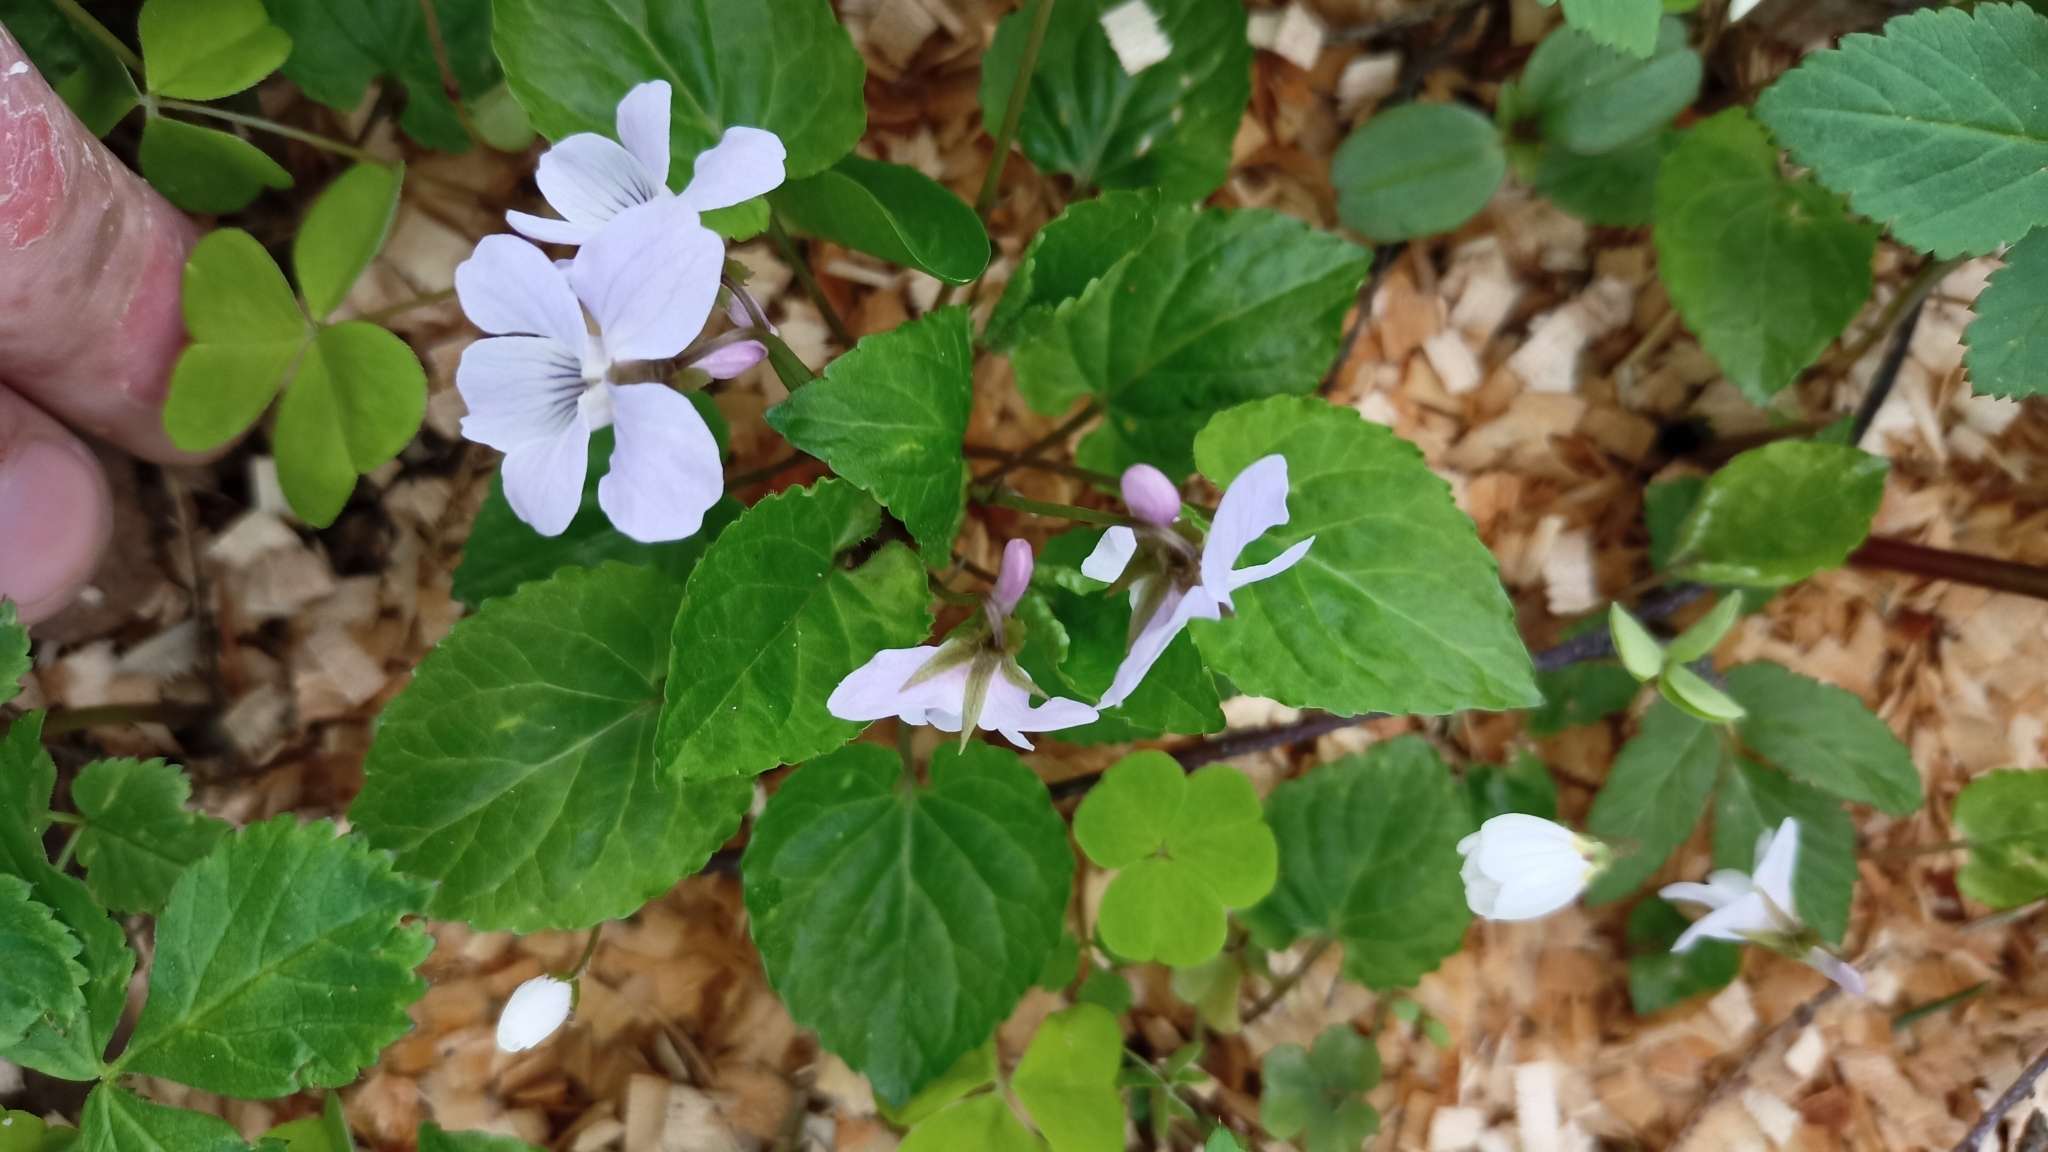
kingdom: Plantae
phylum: Tracheophyta
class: Magnoliopsida
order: Malpighiales
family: Violaceae
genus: Viola
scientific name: Viola selkirkii
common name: Selkirk's violet
